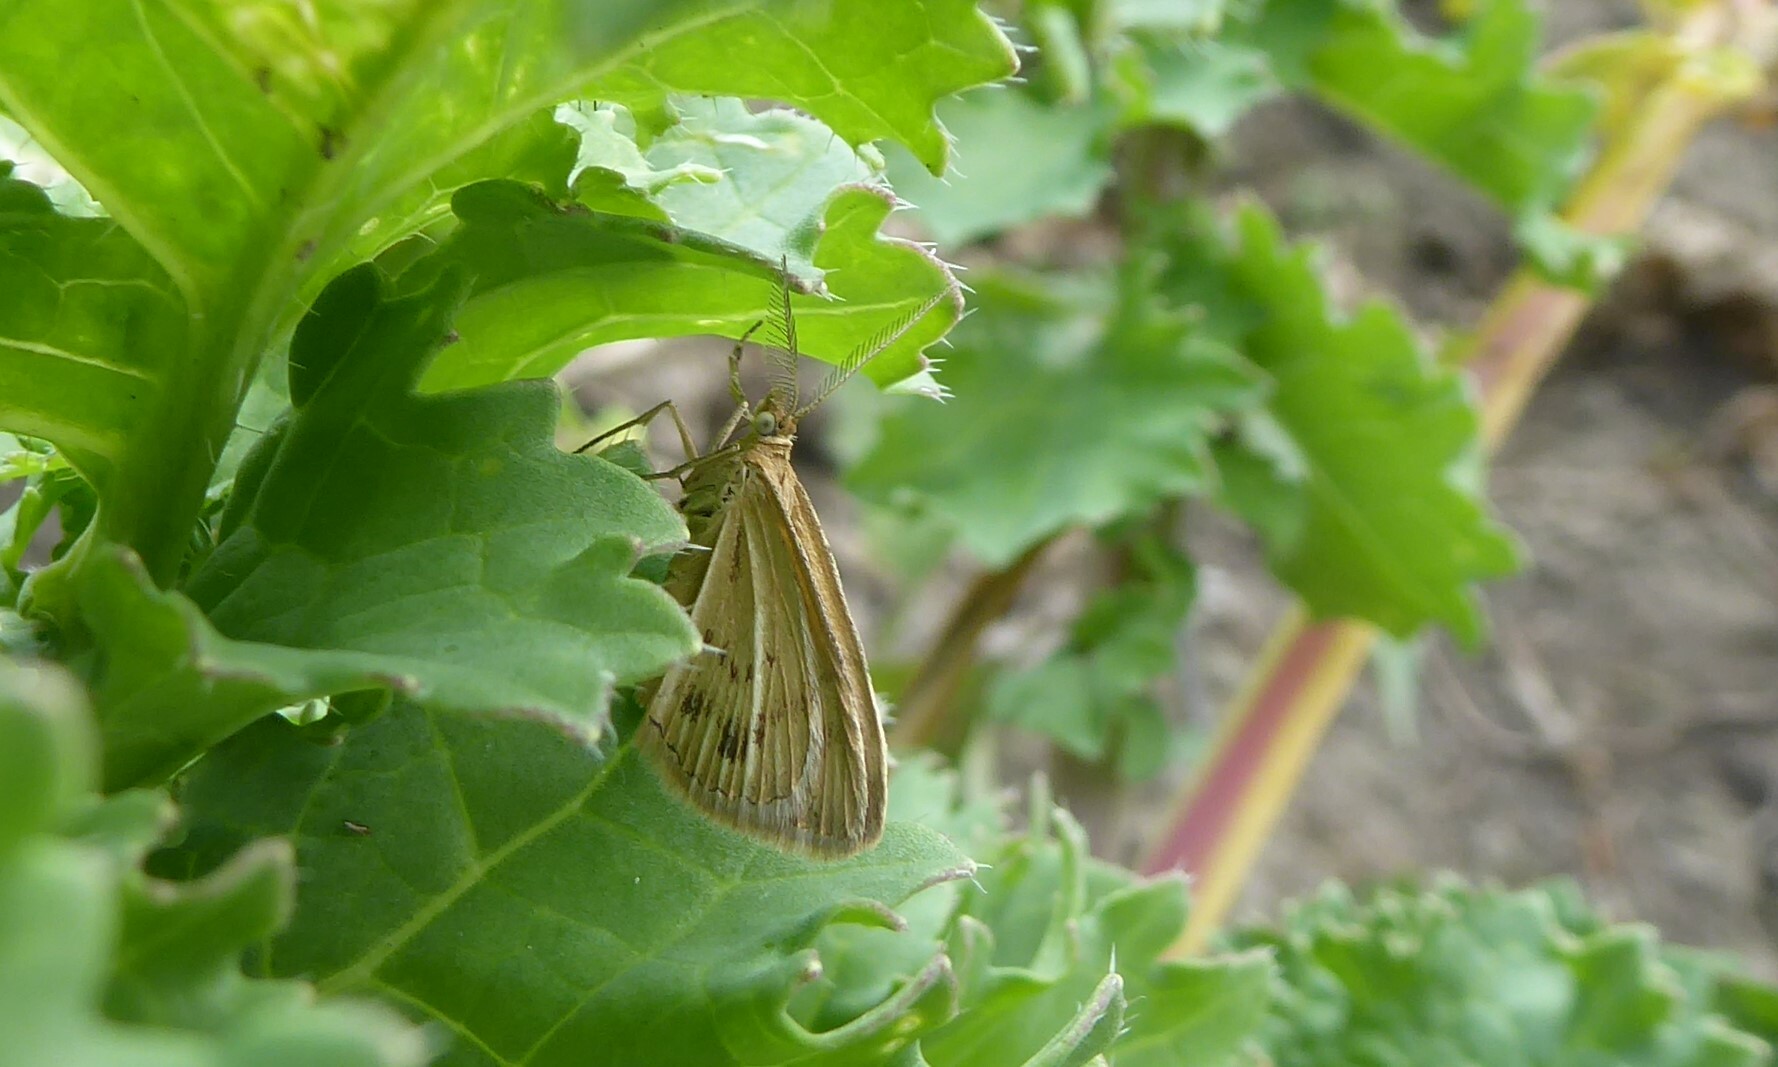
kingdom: Animalia
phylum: Arthropoda
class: Insecta
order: Lepidoptera
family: Geometridae
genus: Asaphodes
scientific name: Asaphodes abrogata
